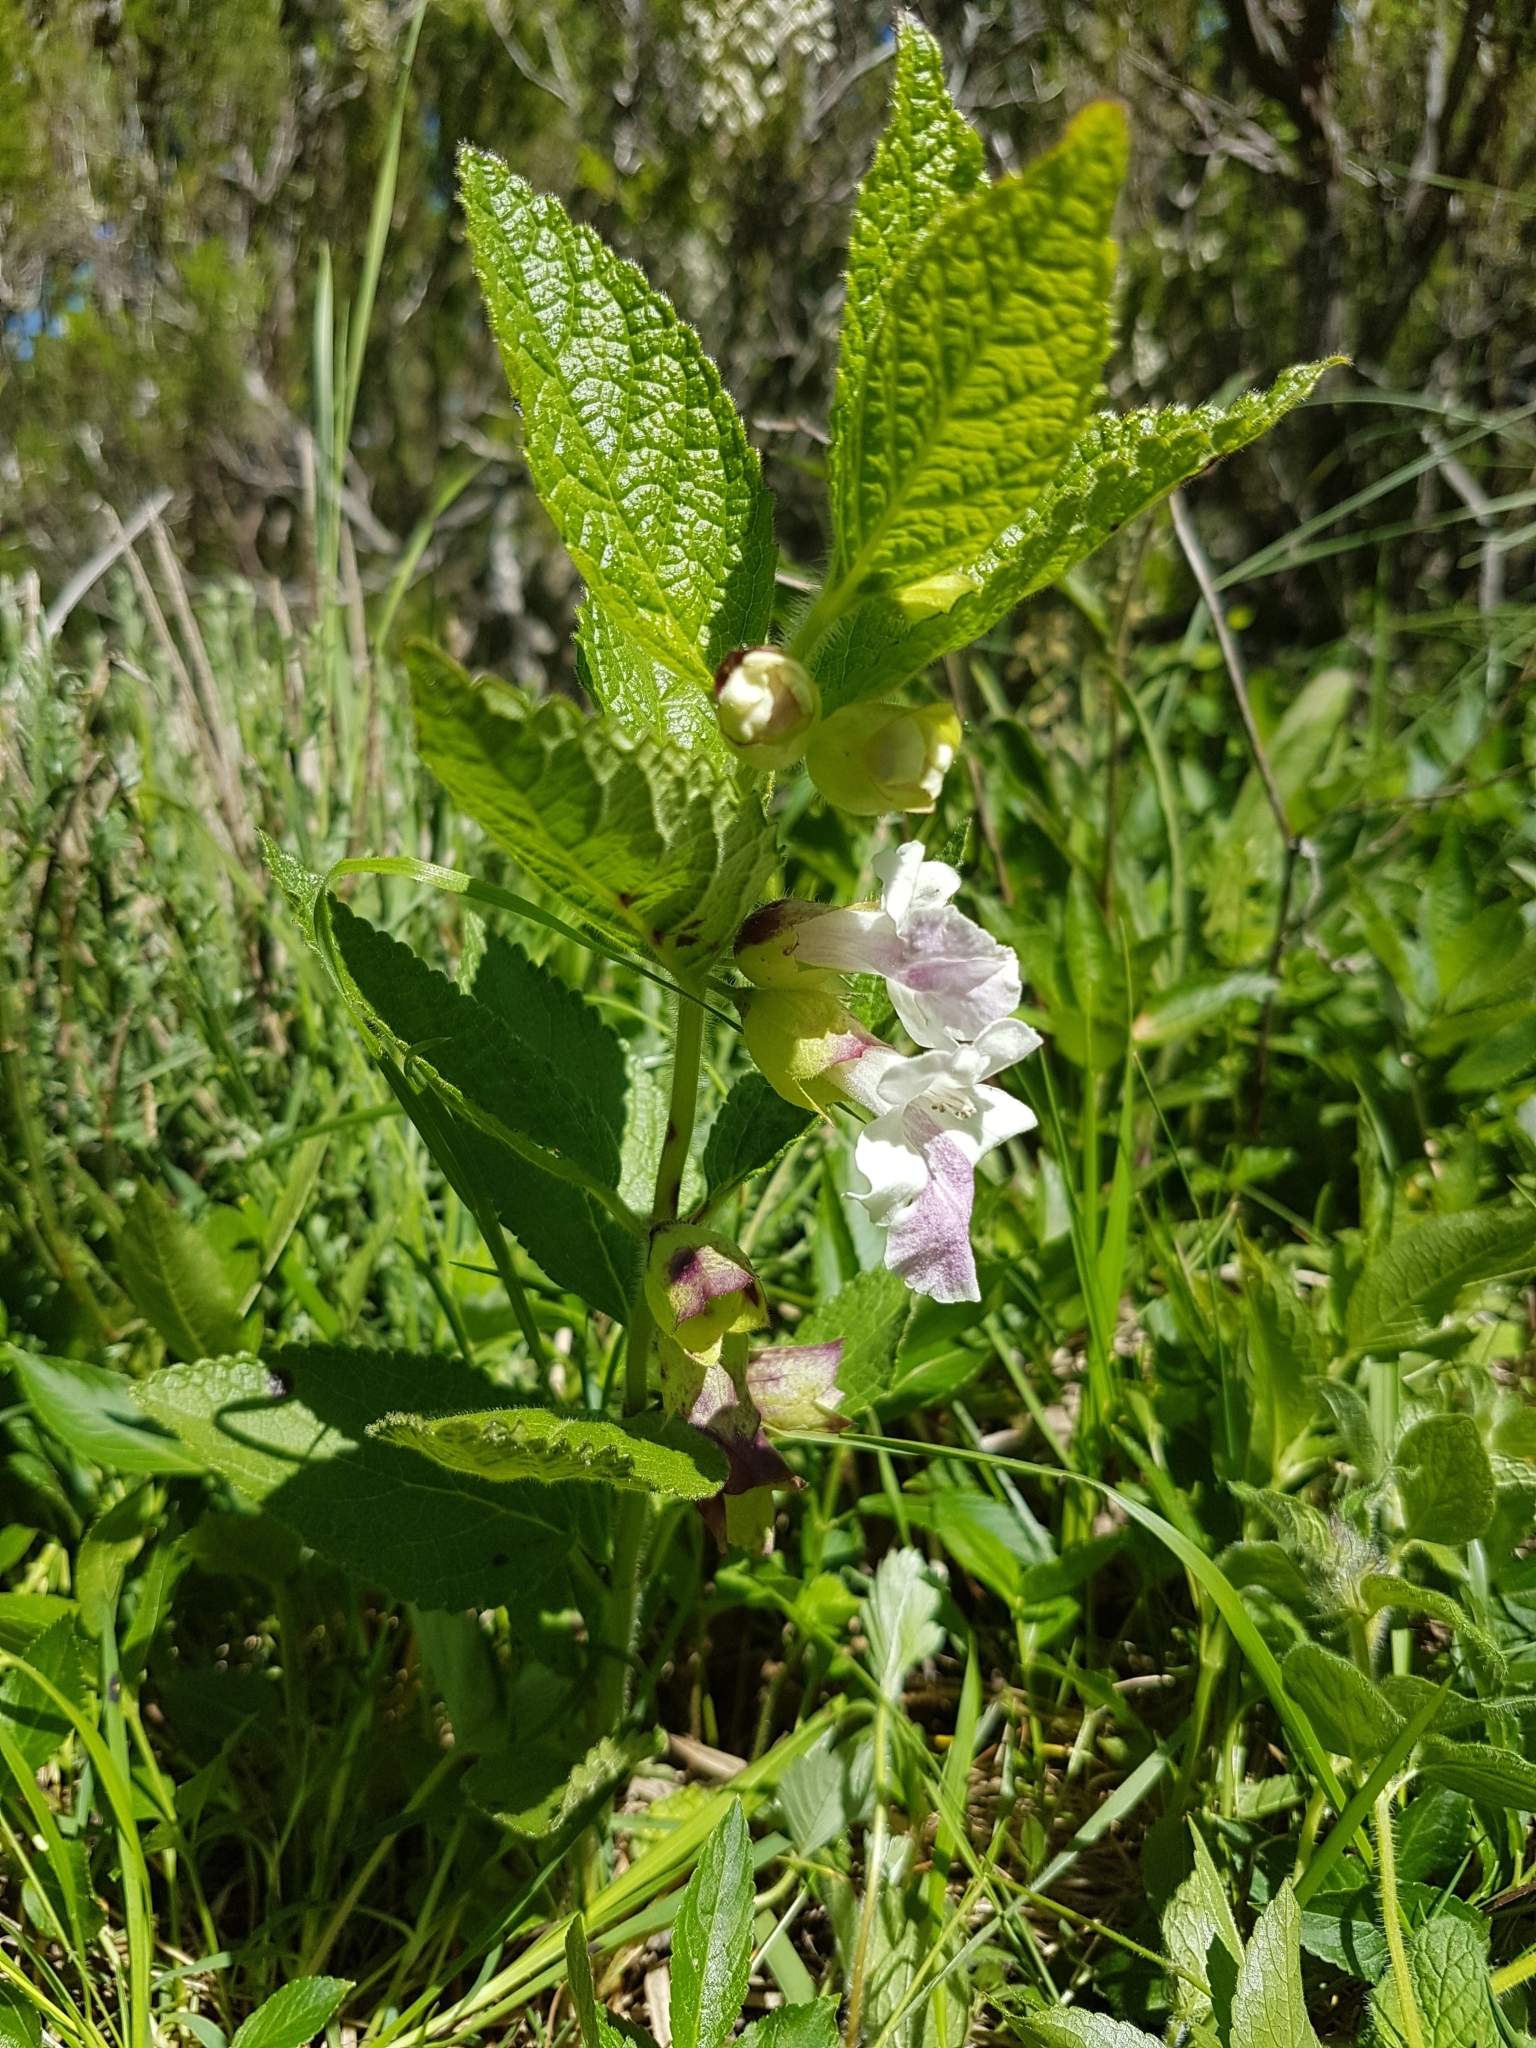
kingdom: Plantae
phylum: Tracheophyta
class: Magnoliopsida
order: Lamiales
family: Lamiaceae
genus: Melittis
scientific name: Melittis melissophyllum
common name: Bastard balm
